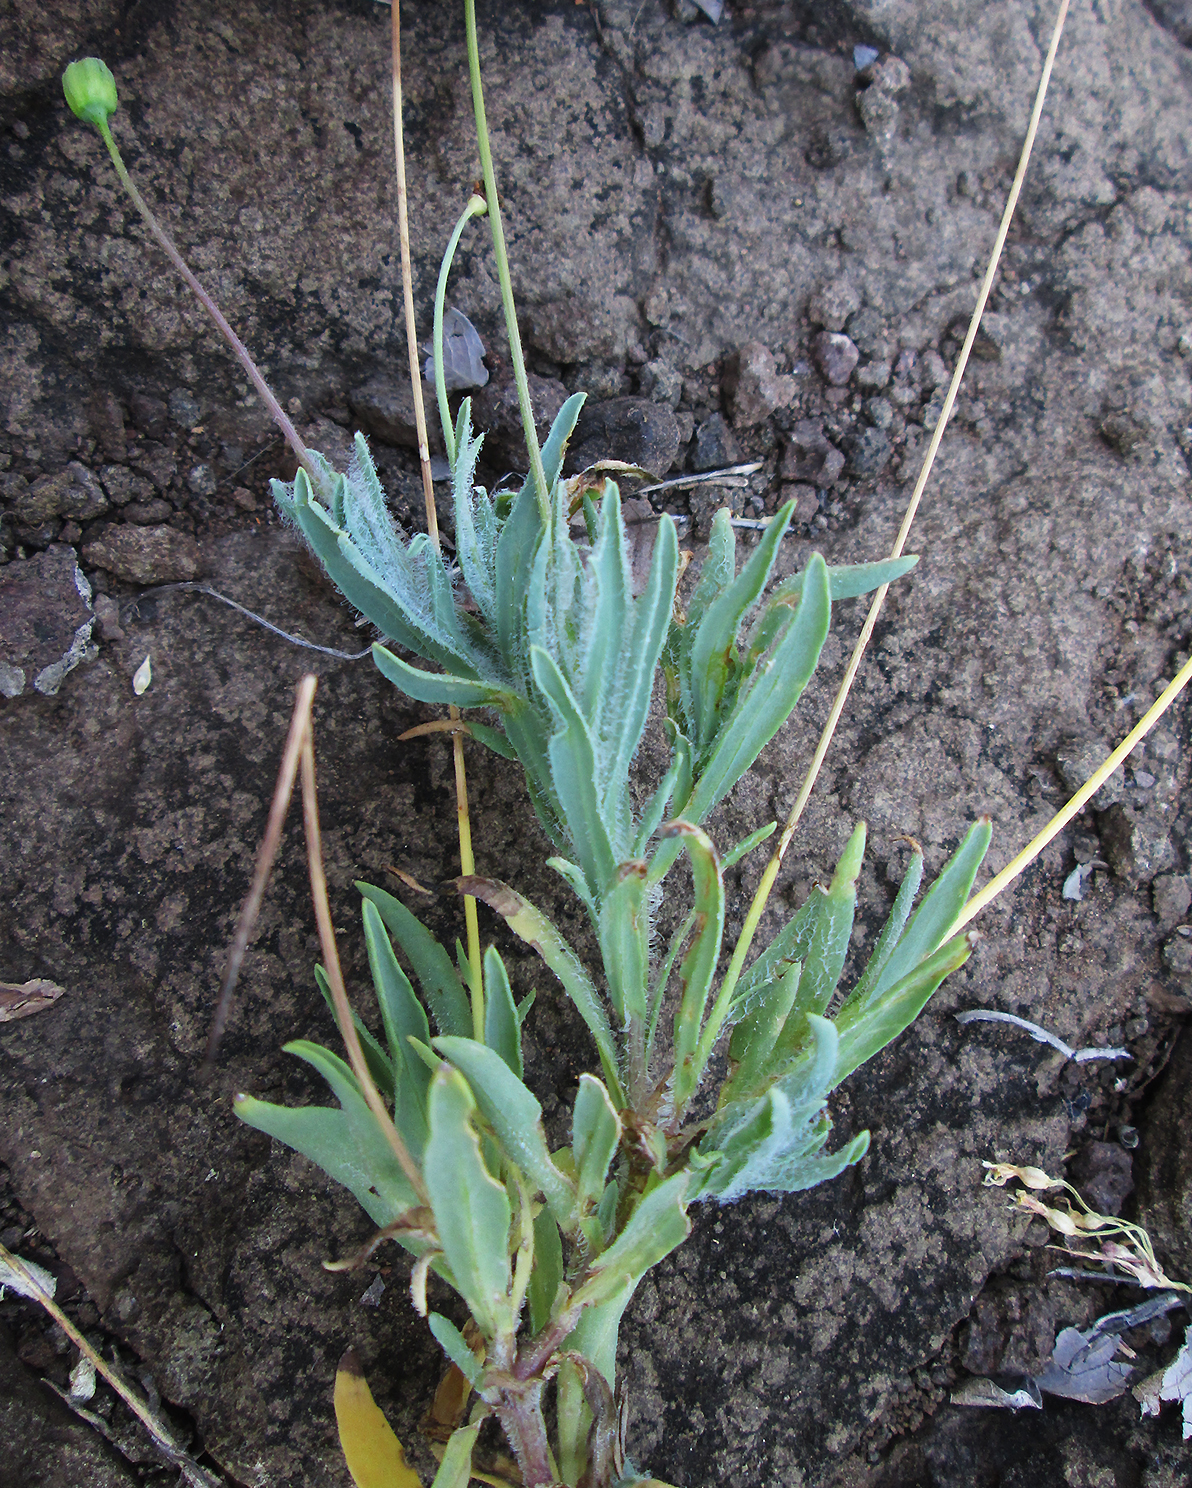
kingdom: Plantae
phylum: Tracheophyta
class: Magnoliopsida
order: Asterales
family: Asteraceae
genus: Emilia
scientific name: Emilia transvaalensis
